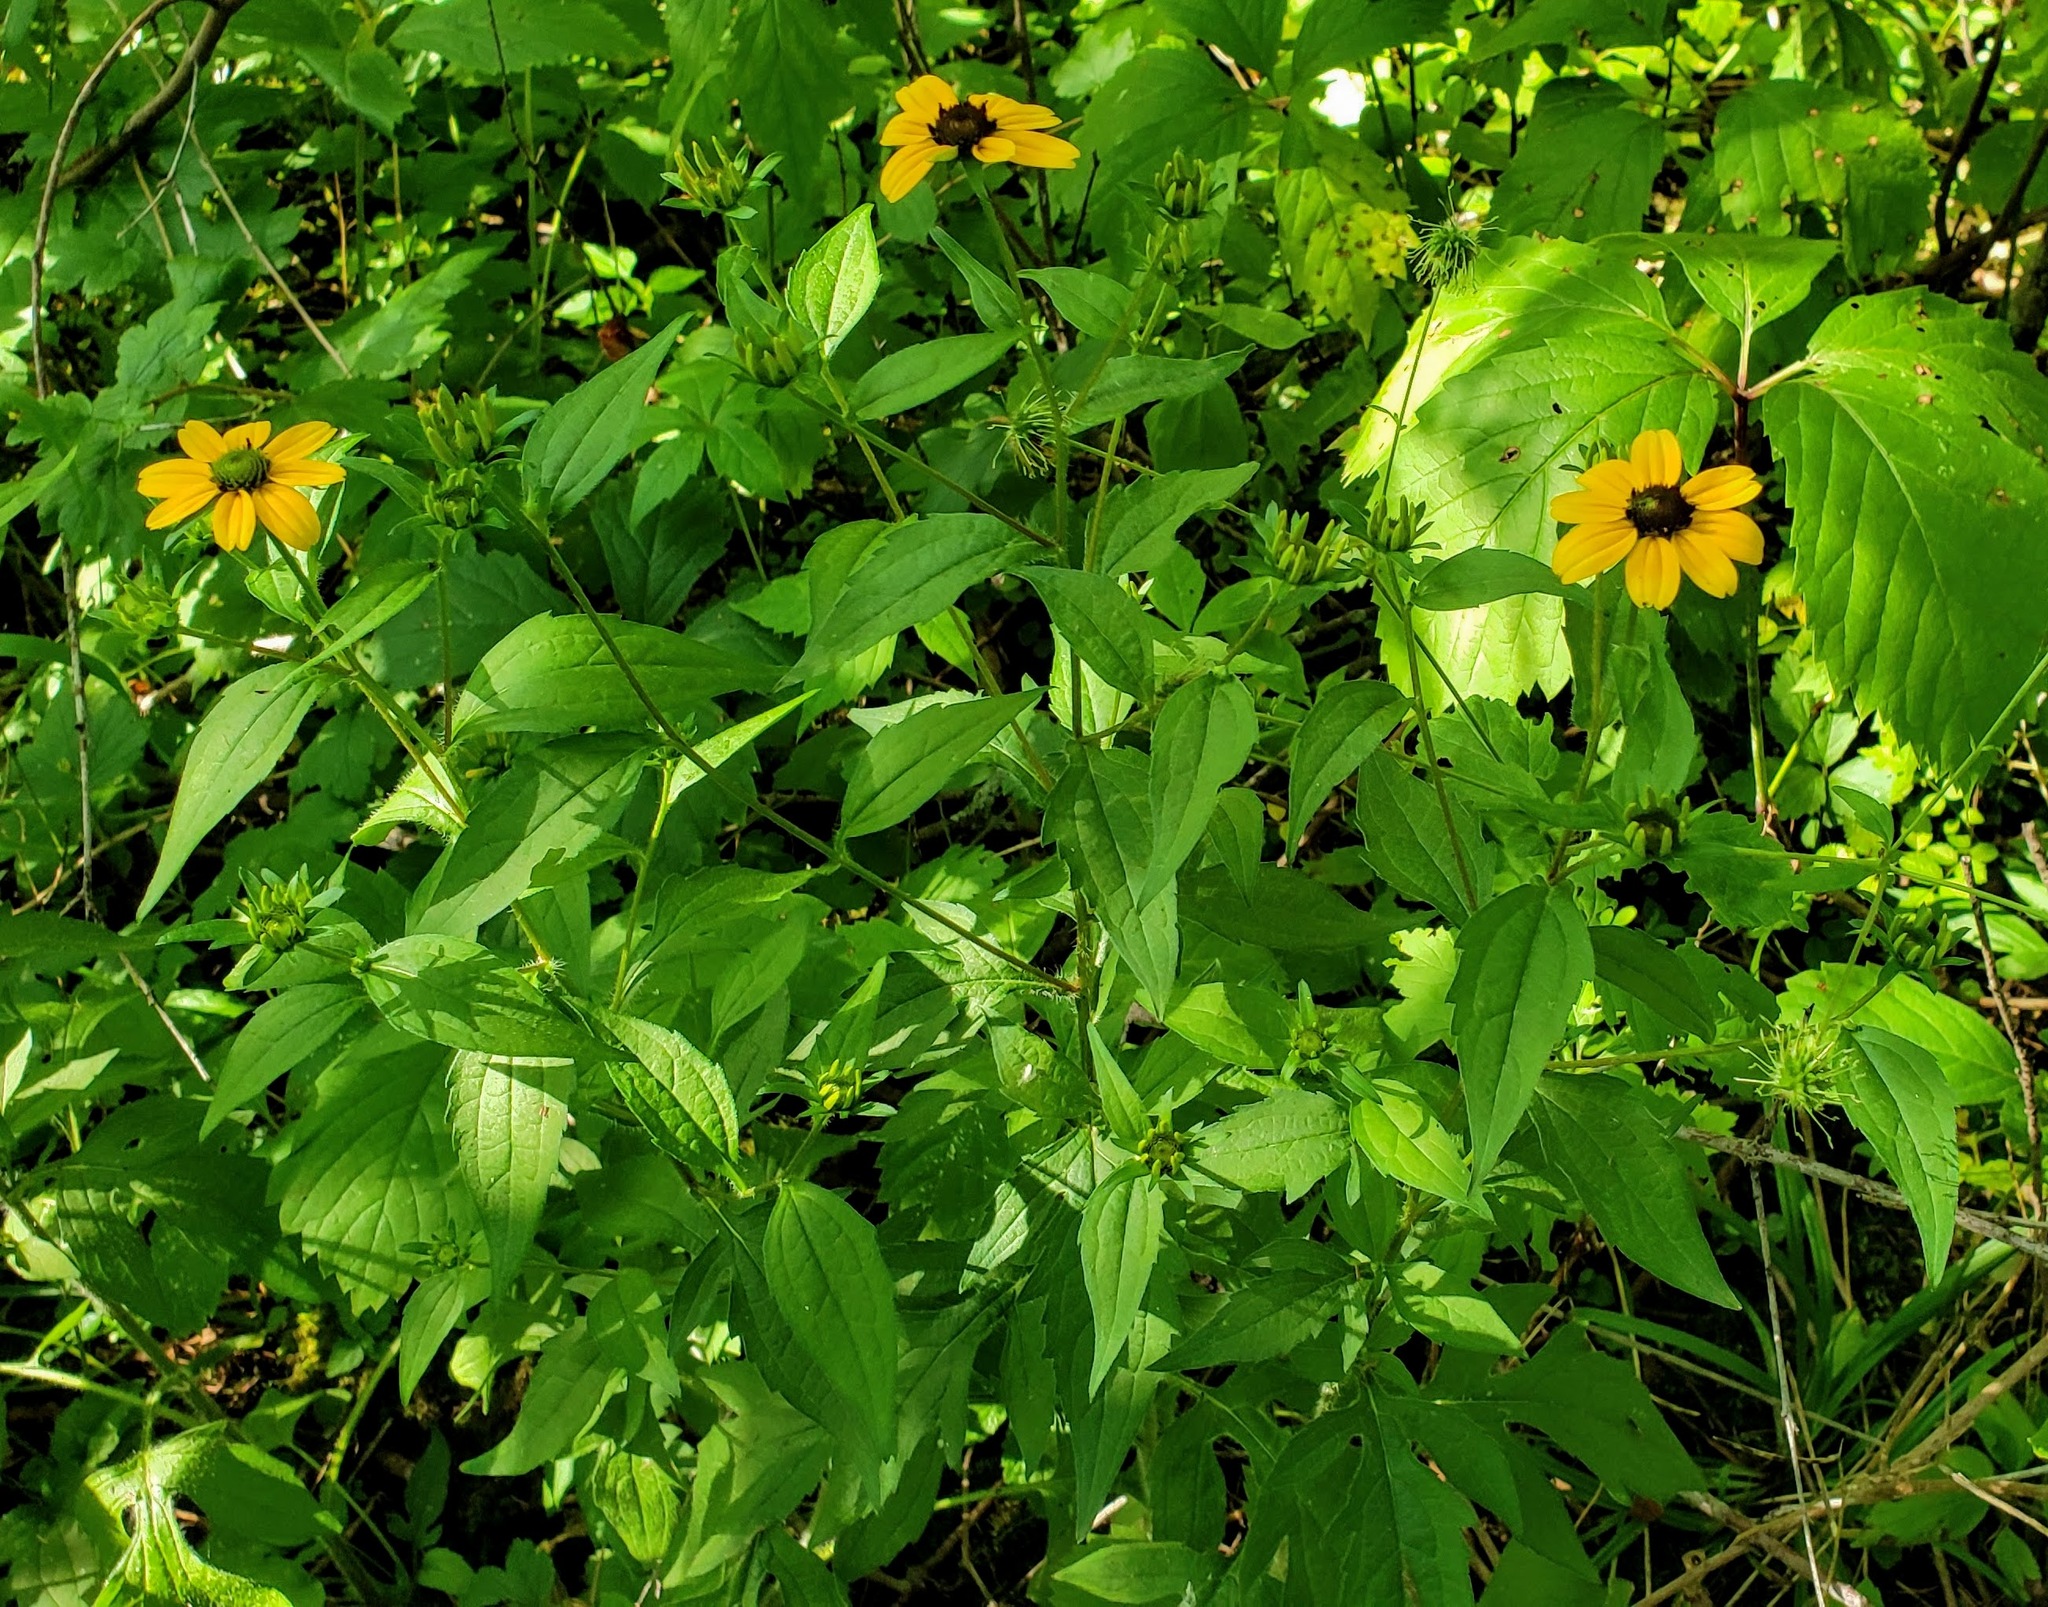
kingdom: Plantae
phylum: Tracheophyta
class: Magnoliopsida
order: Asterales
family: Asteraceae
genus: Rudbeckia
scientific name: Rudbeckia triloba
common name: Thin-leaved coneflower
